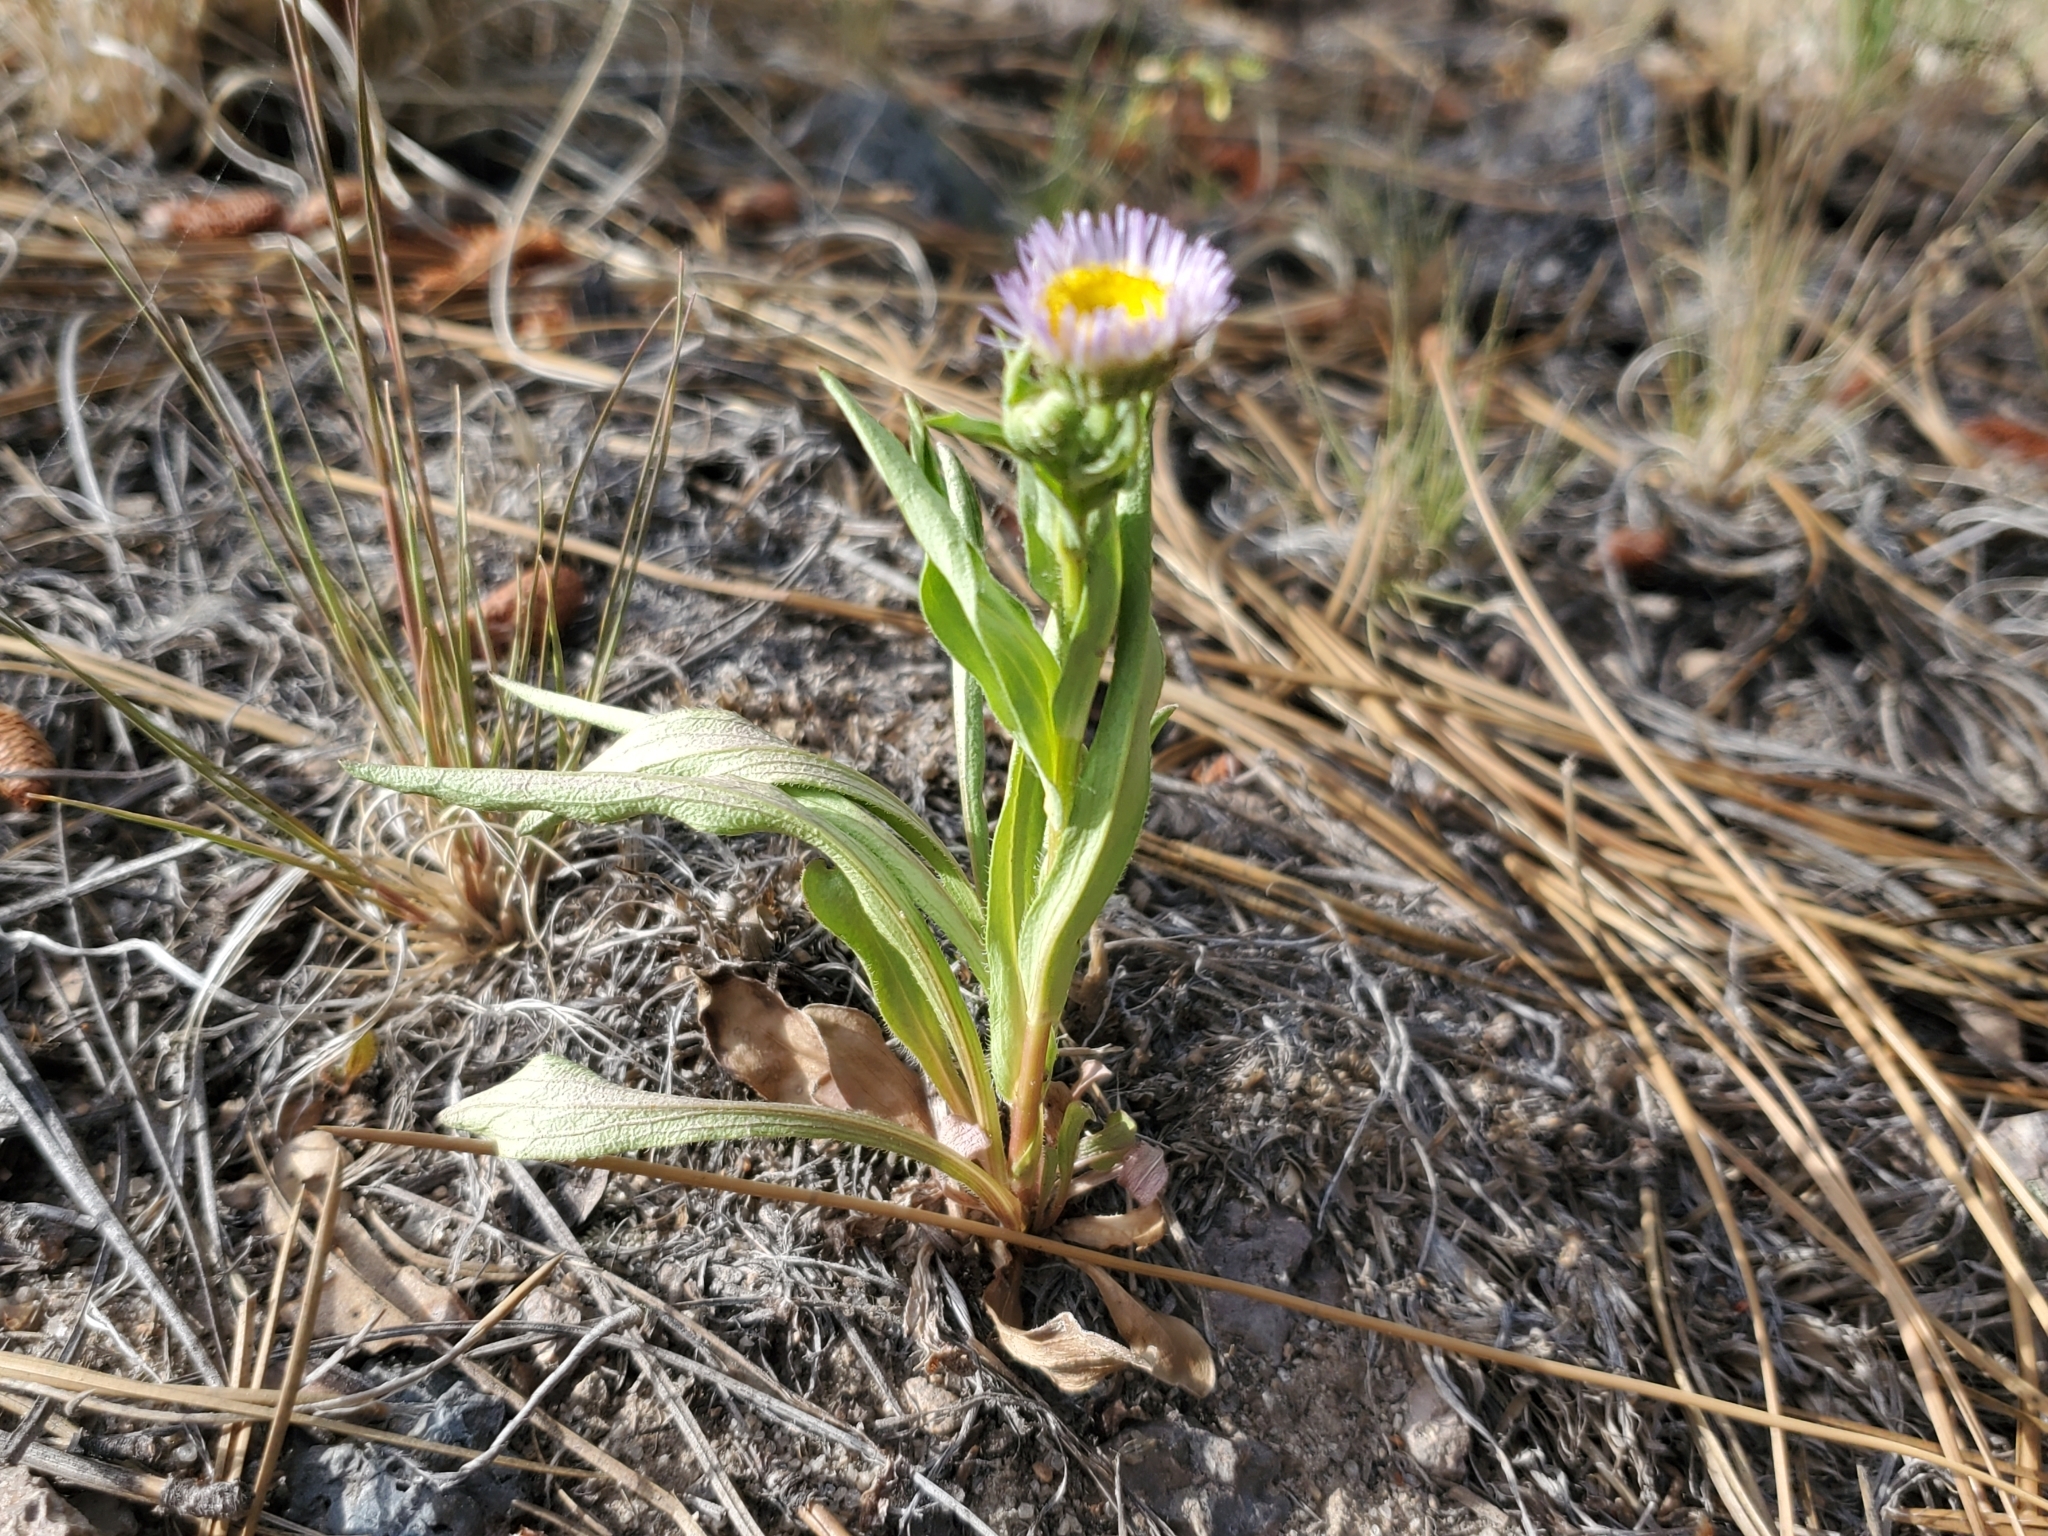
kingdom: Plantae
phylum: Tracheophyta
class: Magnoliopsida
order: Asterales
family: Asteraceae
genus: Erigeron
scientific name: Erigeron speciosus
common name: Aspen fleabane
